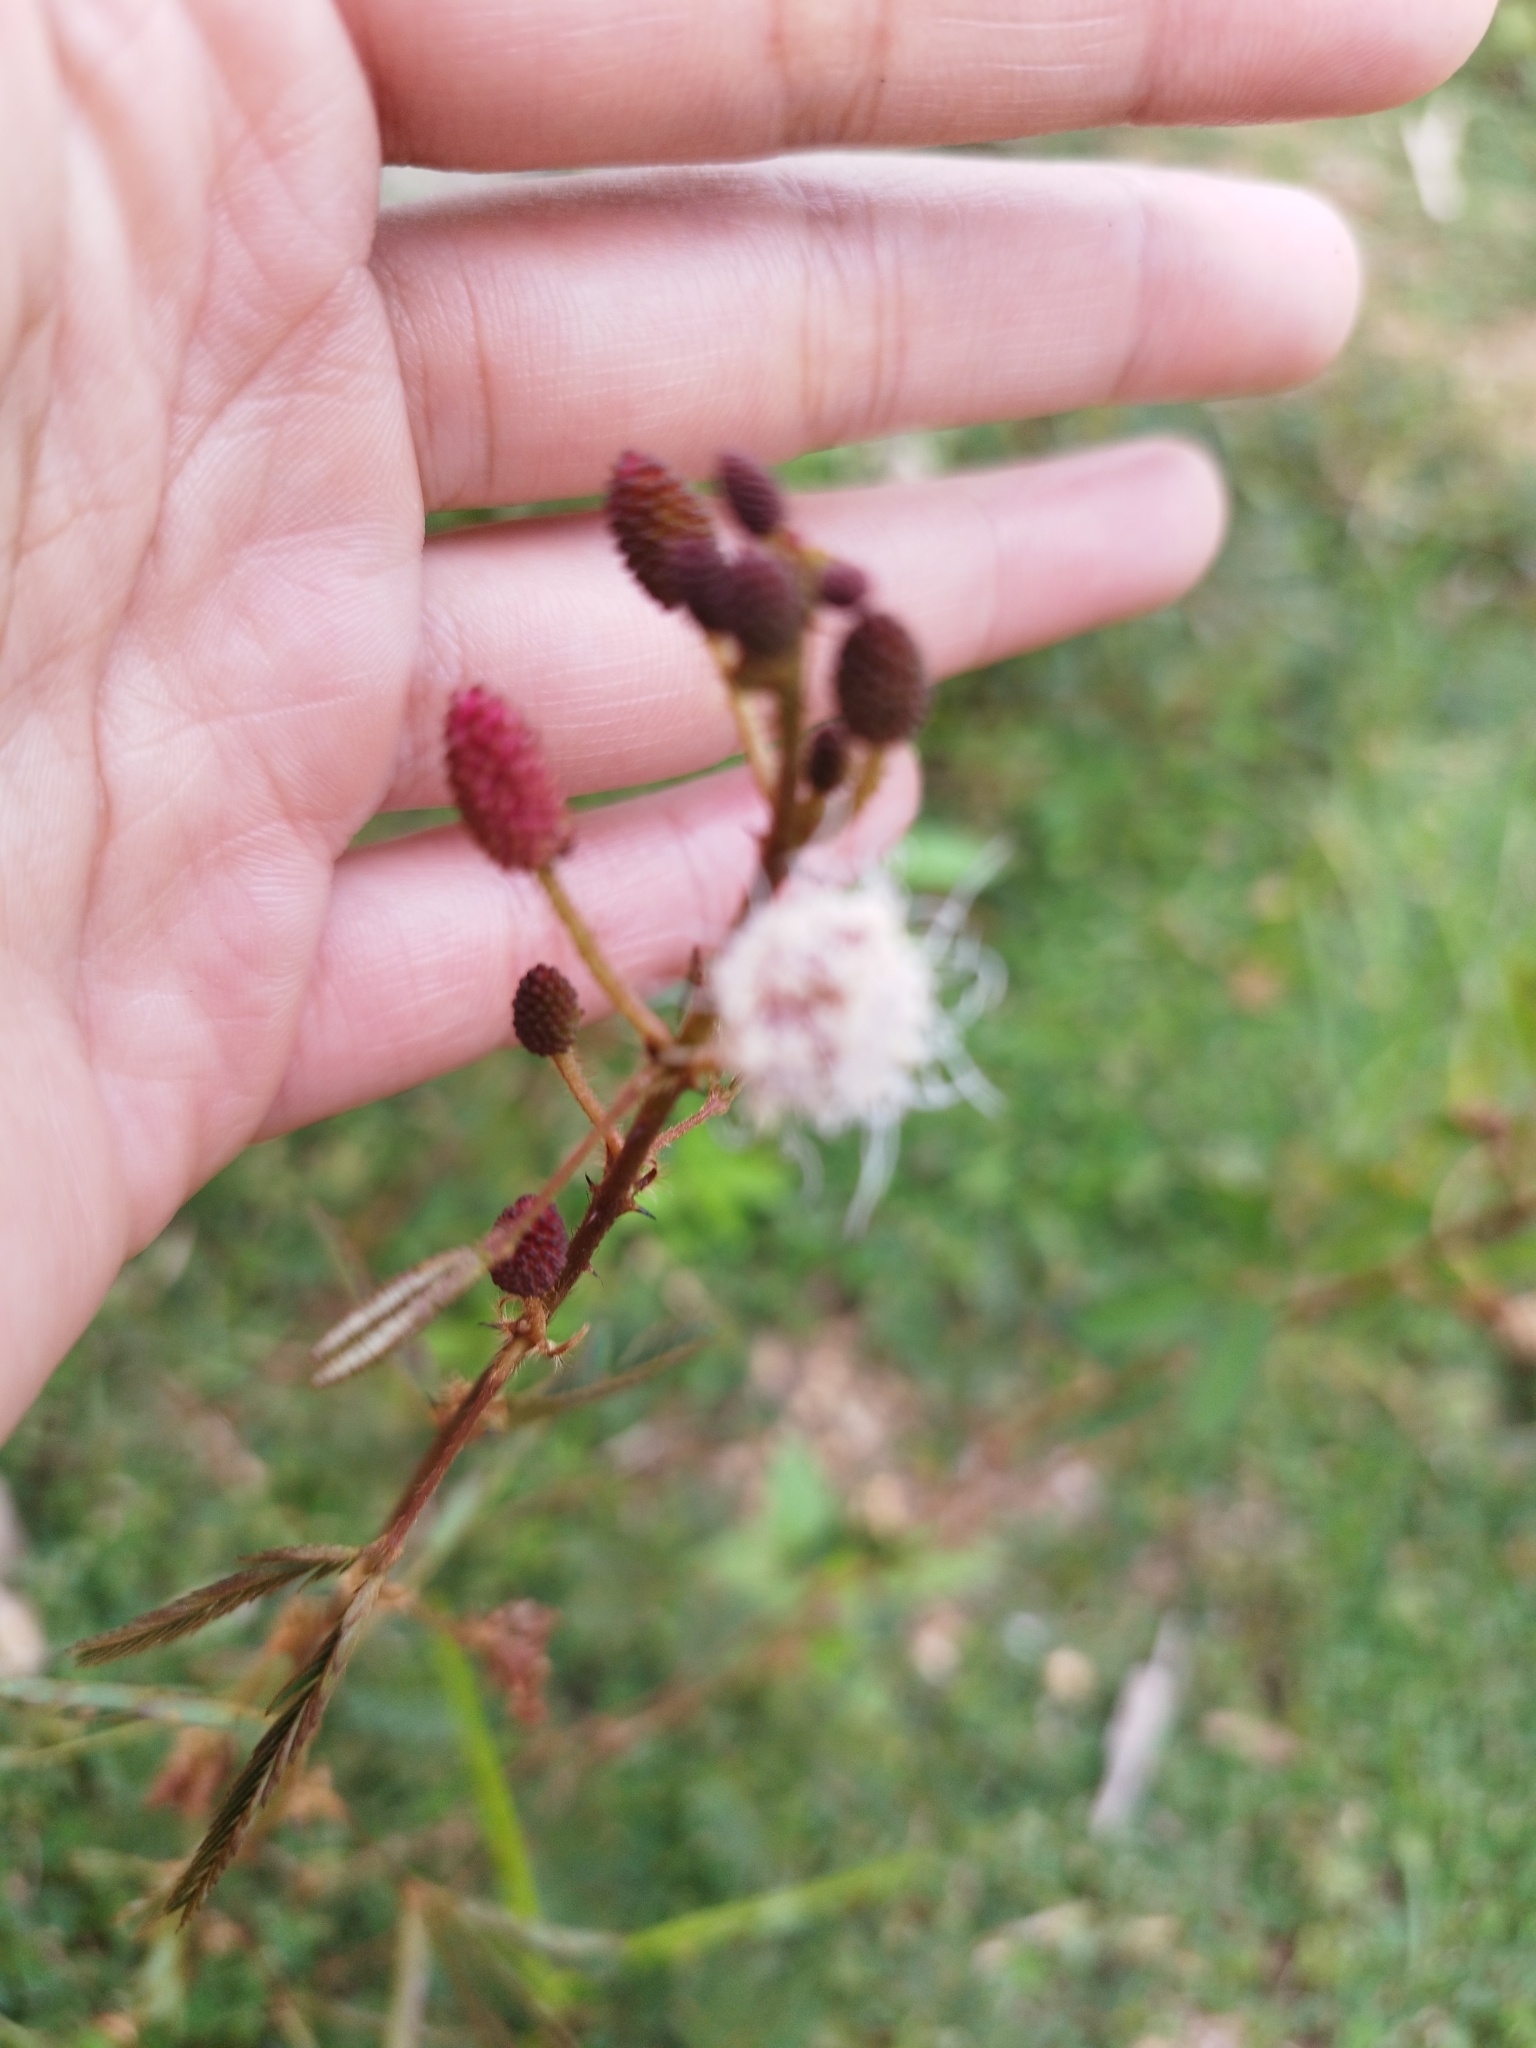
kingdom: Plantae
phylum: Tracheophyta
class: Magnoliopsida
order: Fabales
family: Fabaceae
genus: Mimosa
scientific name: Mimosa pudica
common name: Sensitive plant
